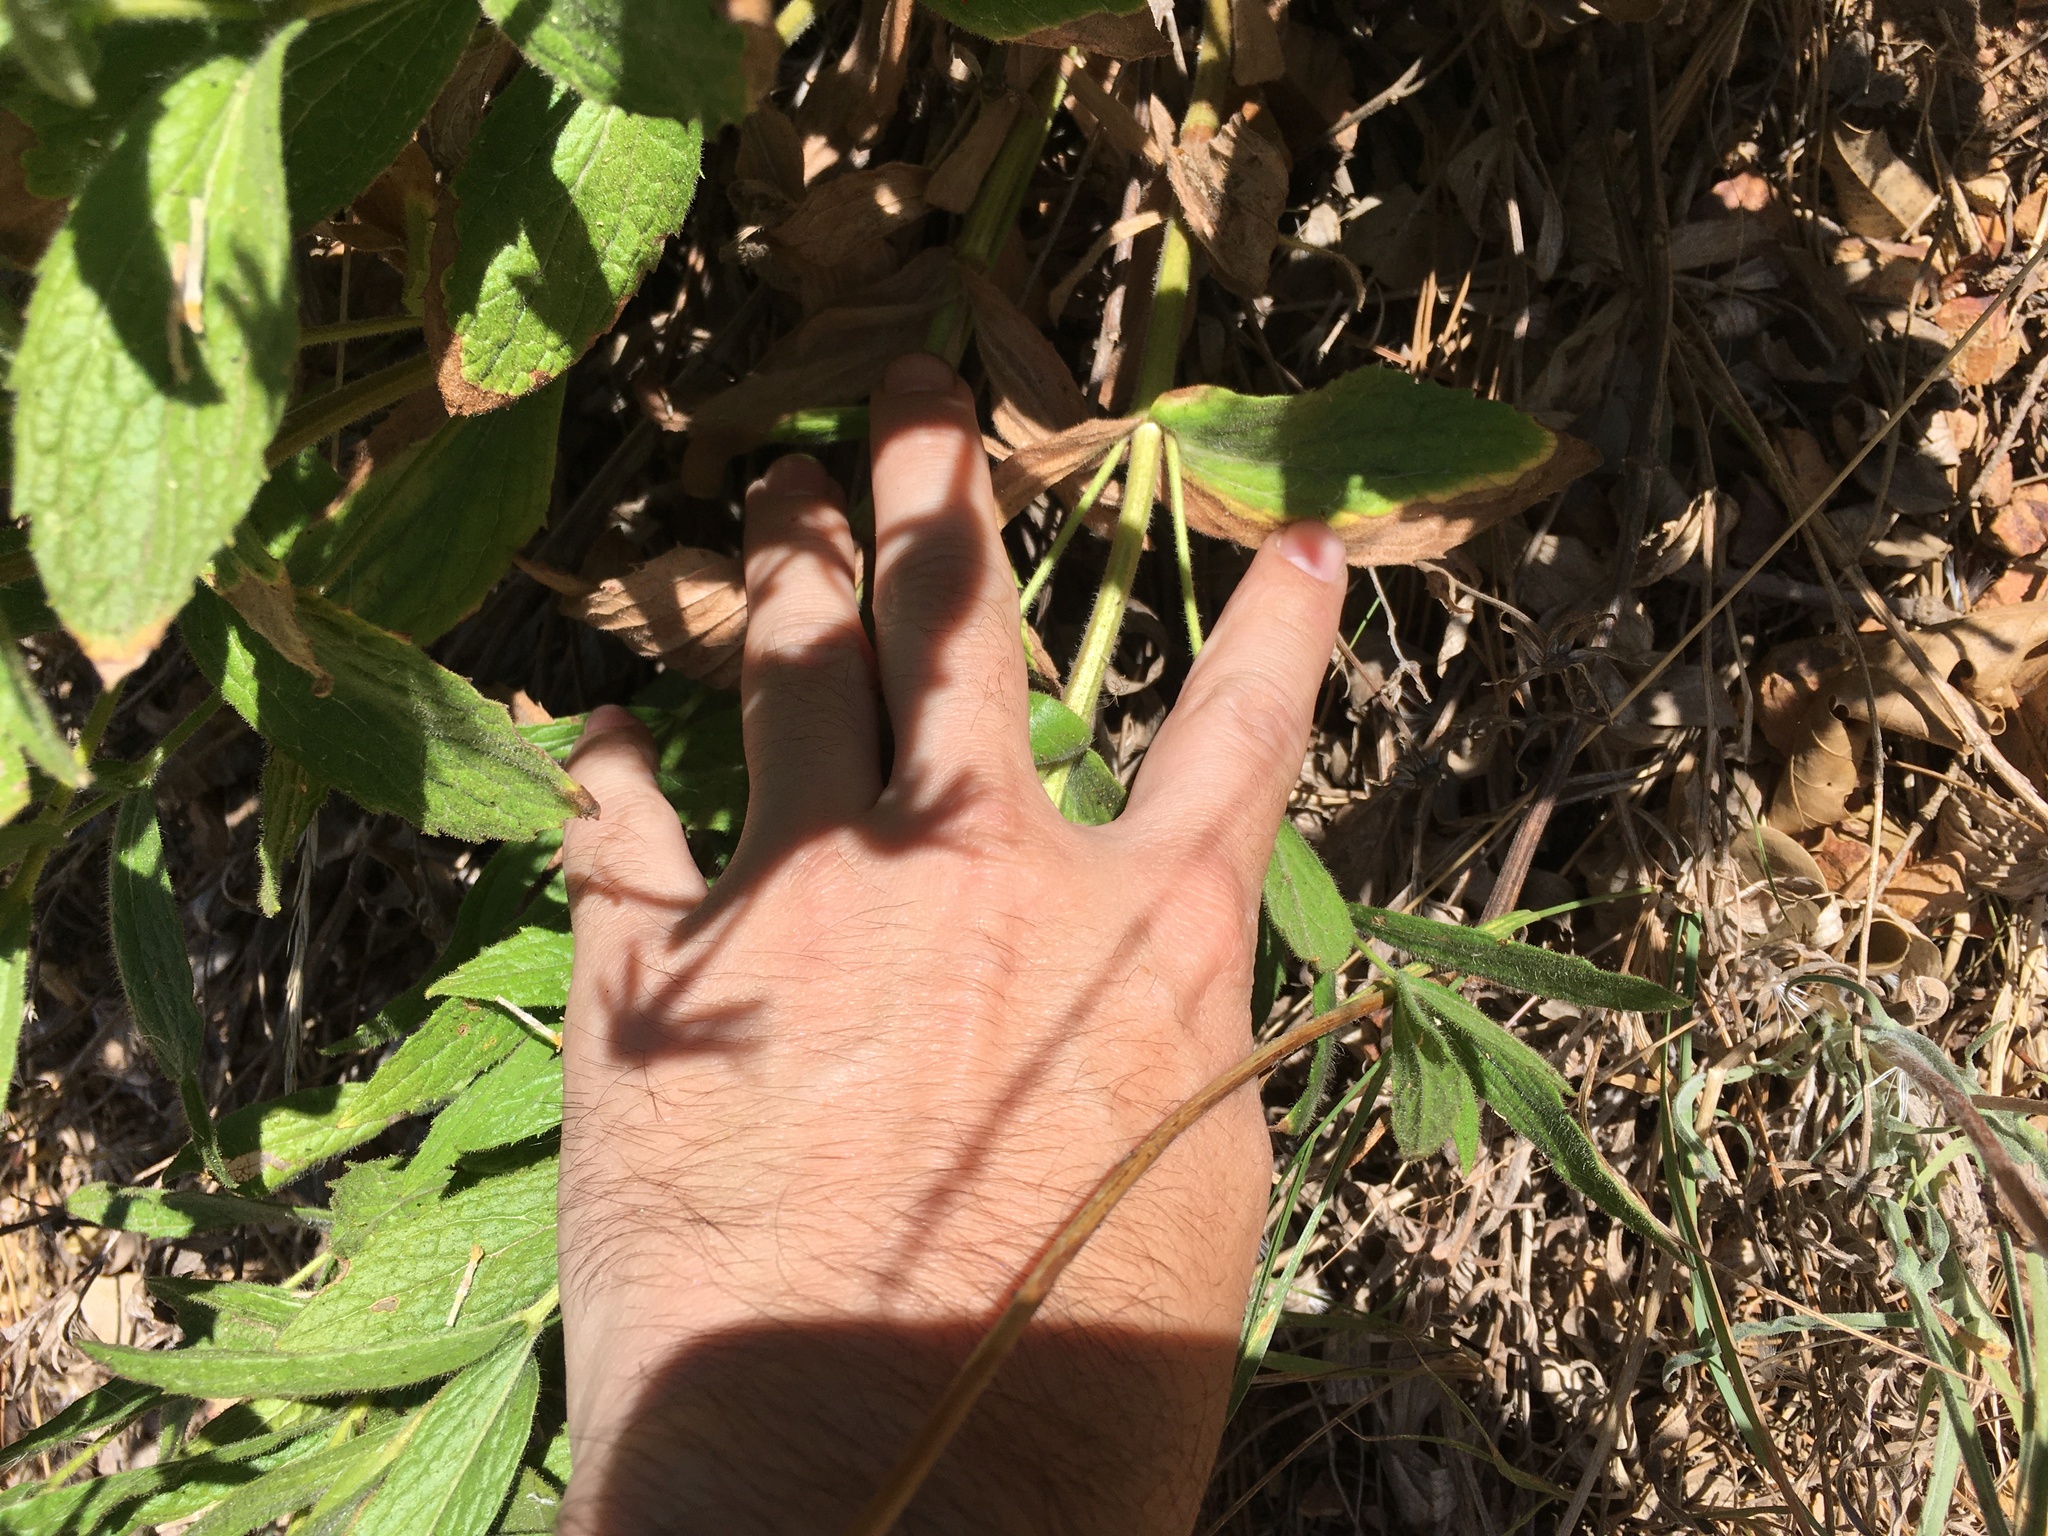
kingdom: Plantae
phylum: Tracheophyta
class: Magnoliopsida
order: Asterales
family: Asteraceae
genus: Arnica
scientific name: Arnica venosa
